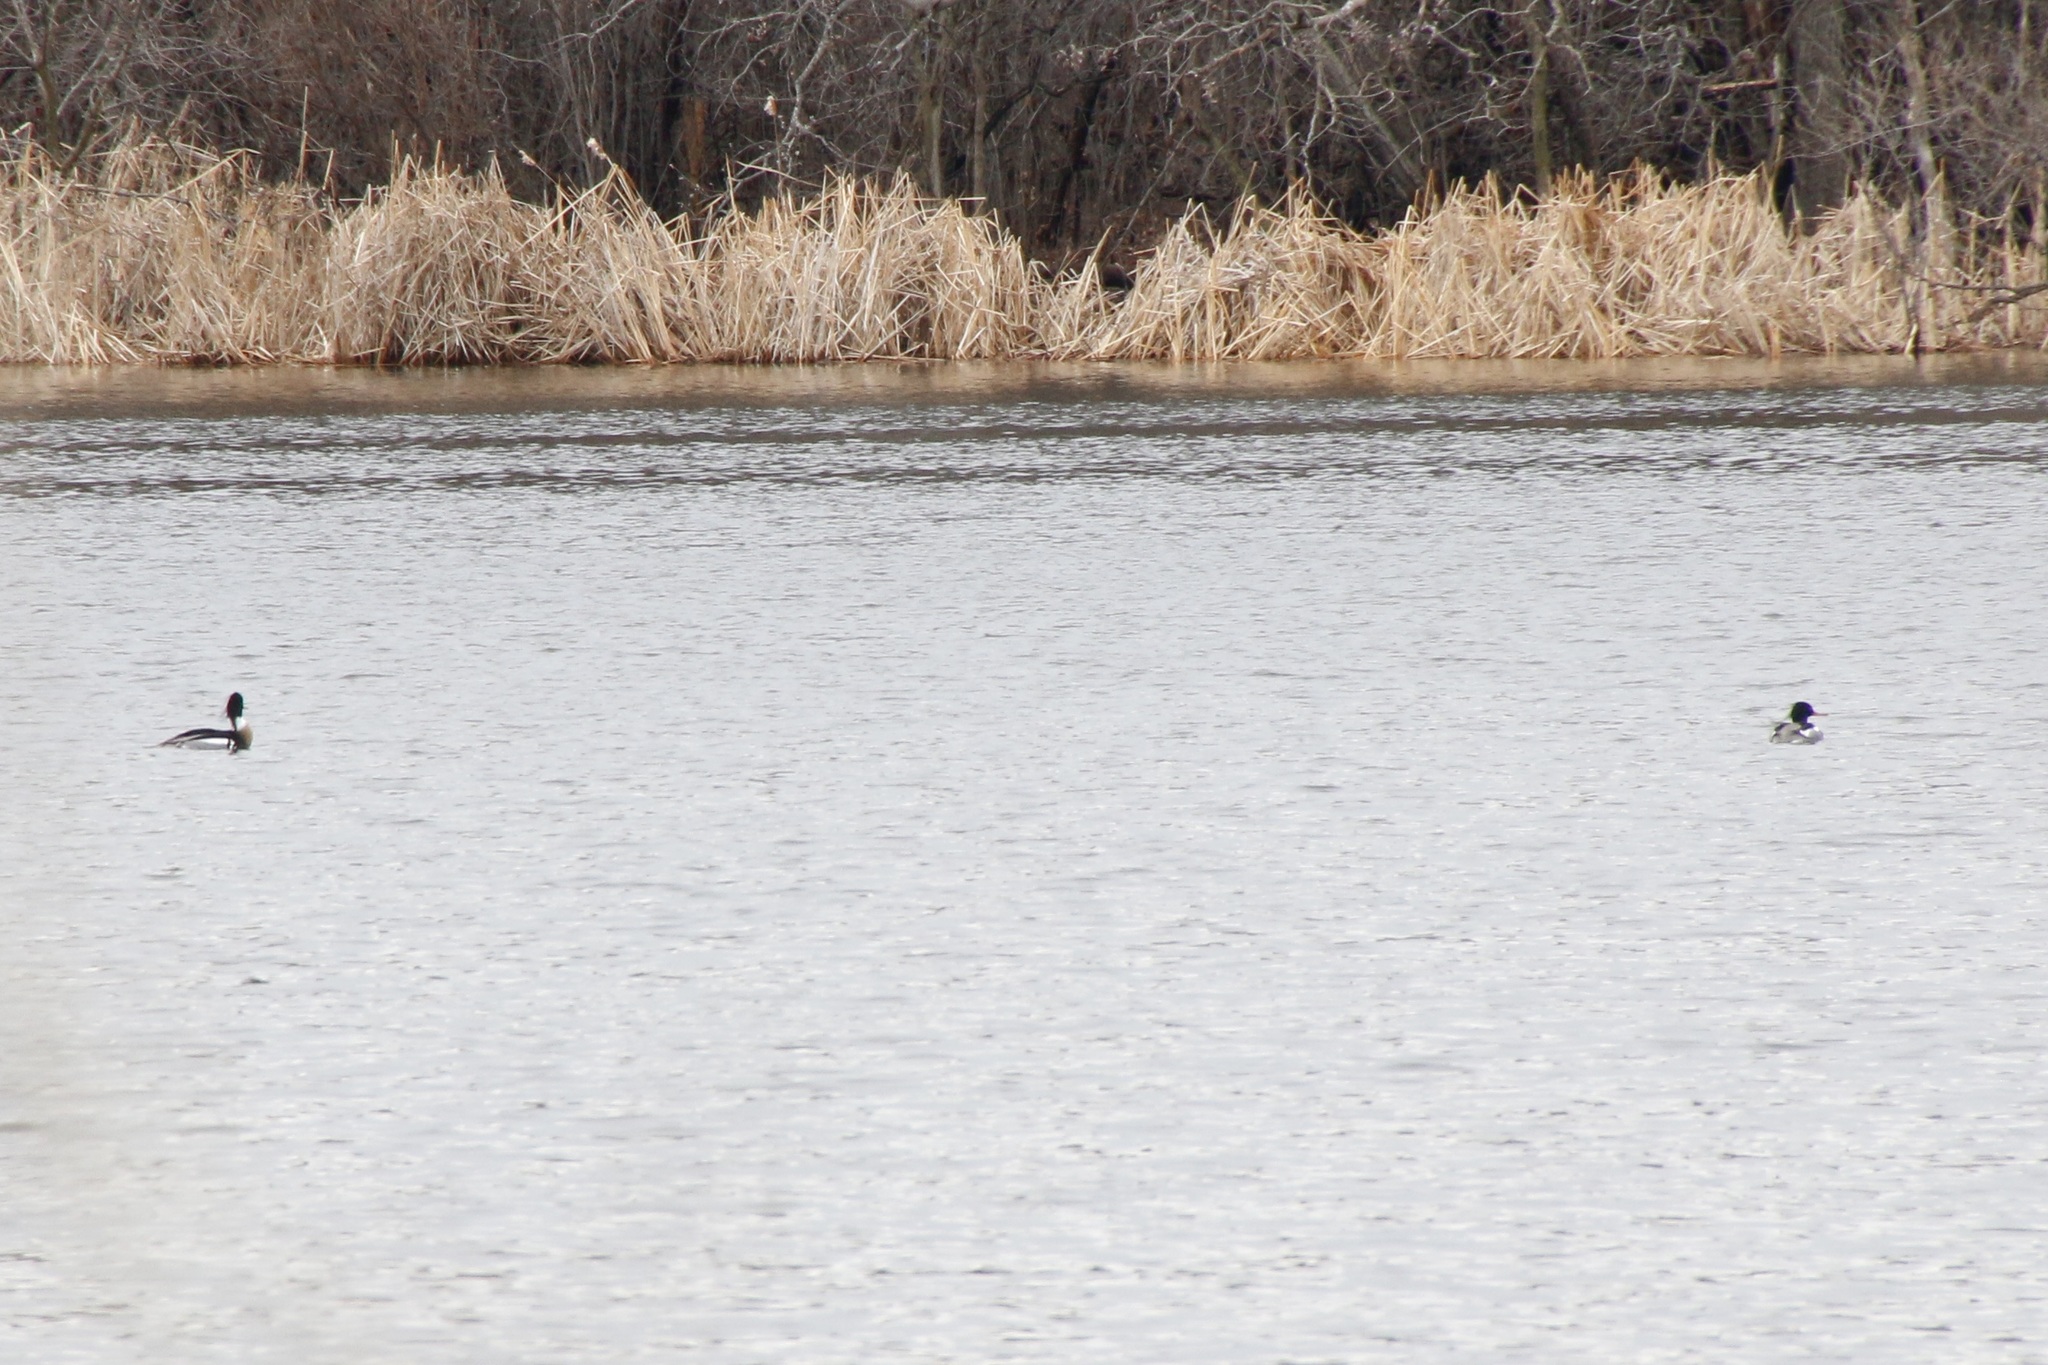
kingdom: Animalia
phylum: Chordata
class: Aves
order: Anseriformes
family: Anatidae
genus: Mergus
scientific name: Mergus serrator
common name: Red-breasted merganser
